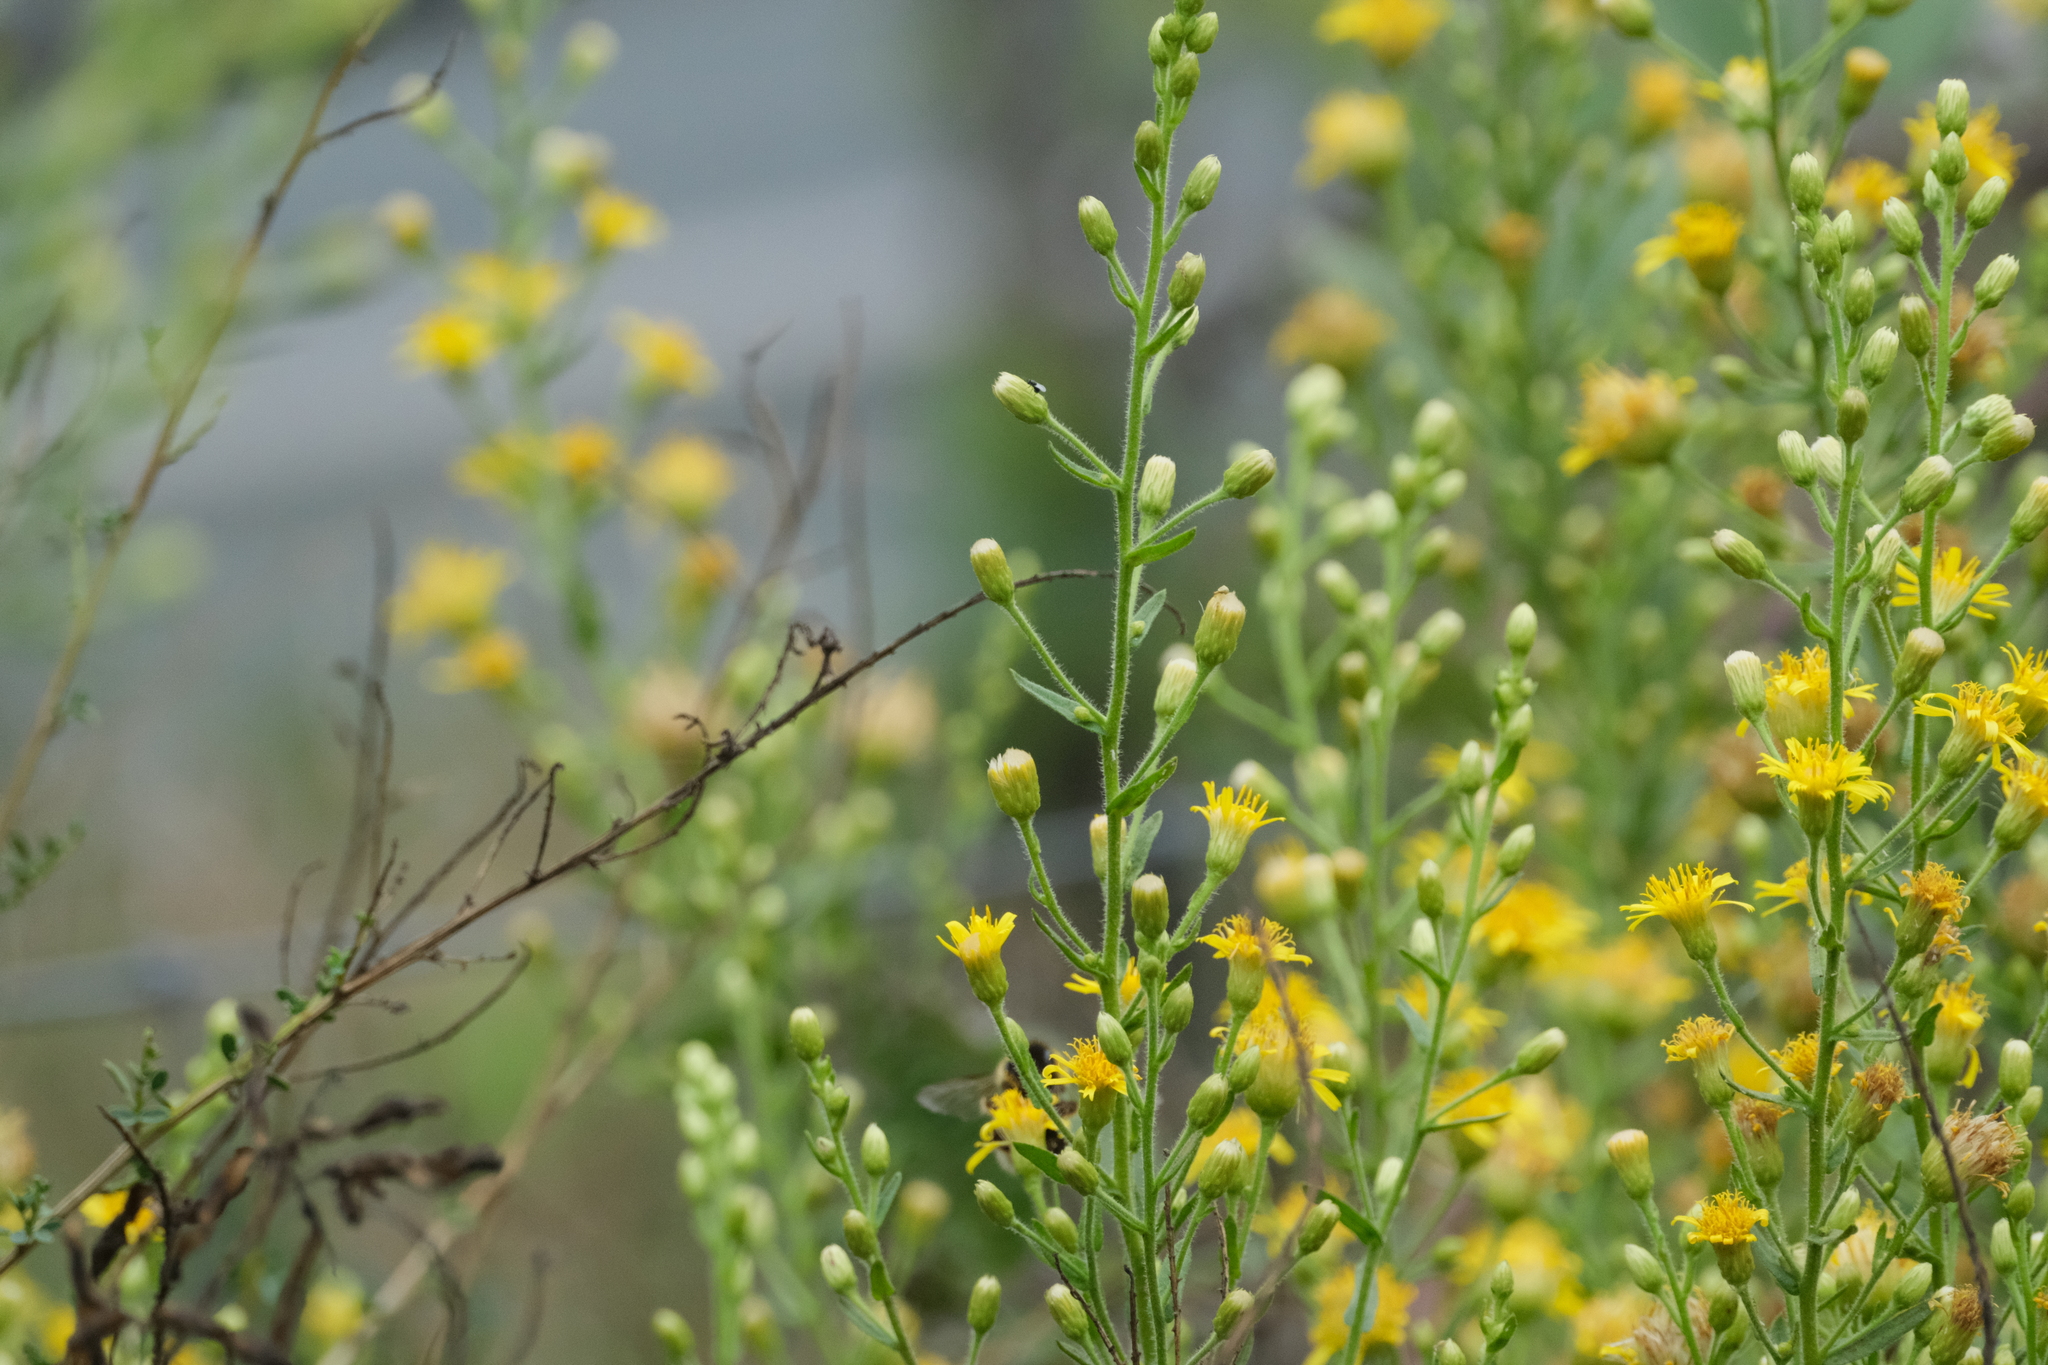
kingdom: Plantae
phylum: Tracheophyta
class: Magnoliopsida
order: Asterales
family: Asteraceae
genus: Dittrichia
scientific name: Dittrichia viscosa
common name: Woody fleabane
